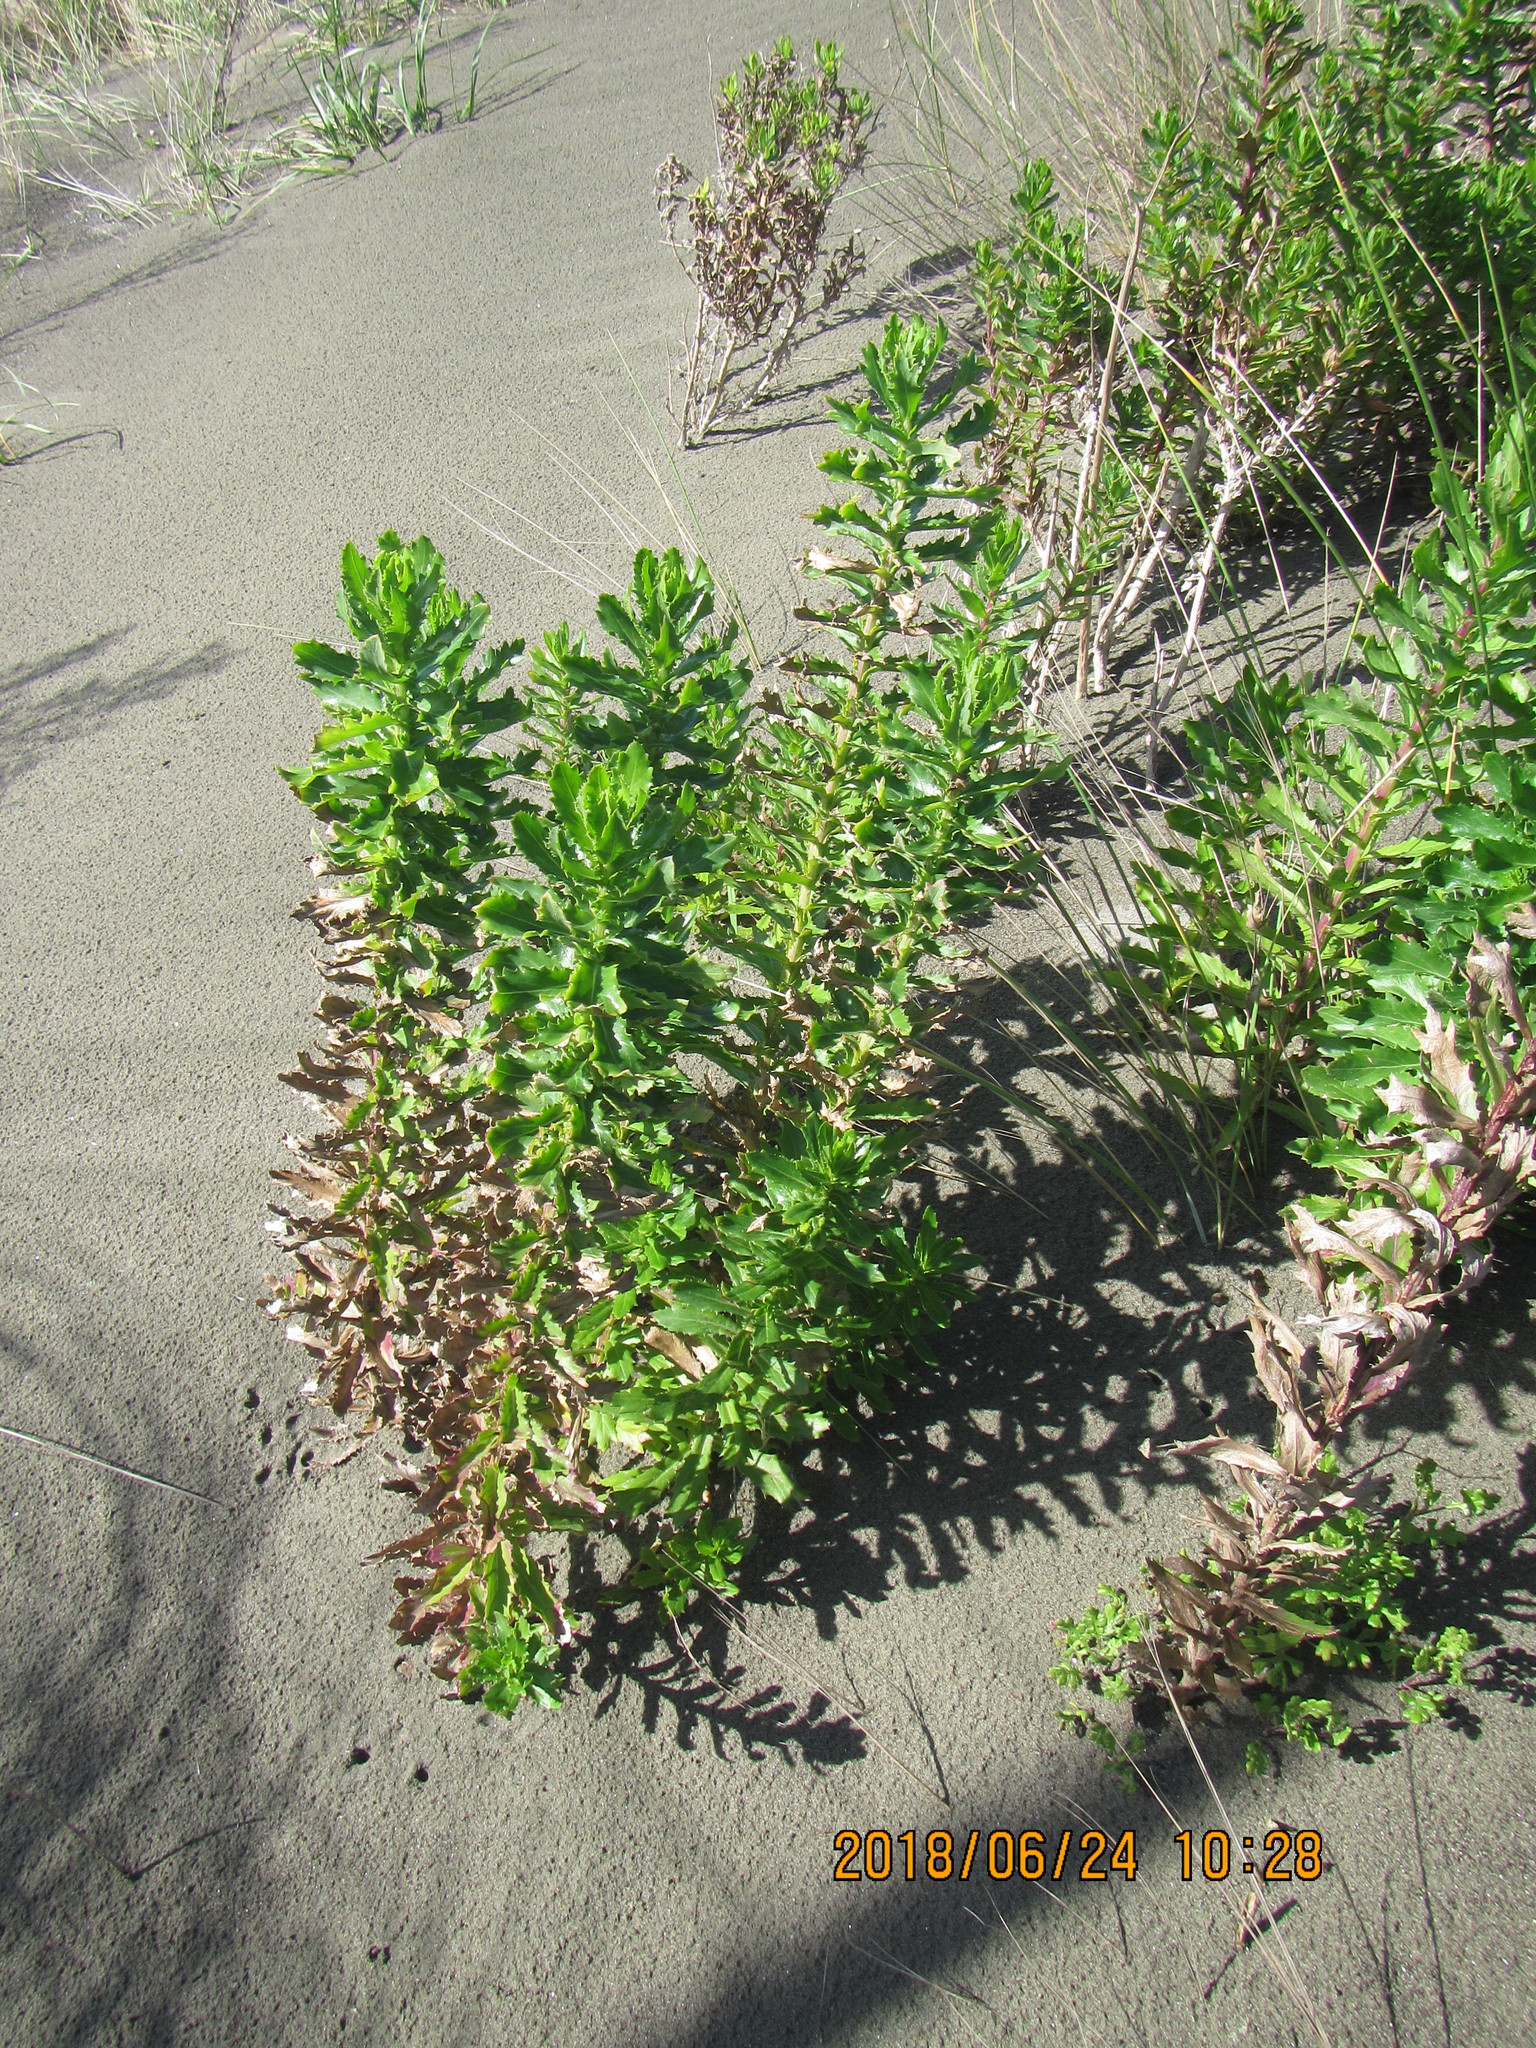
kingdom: Plantae
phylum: Tracheophyta
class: Magnoliopsida
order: Asterales
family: Asteraceae
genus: Senecio
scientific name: Senecio glastifolius
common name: Woad-leaved ragwort
